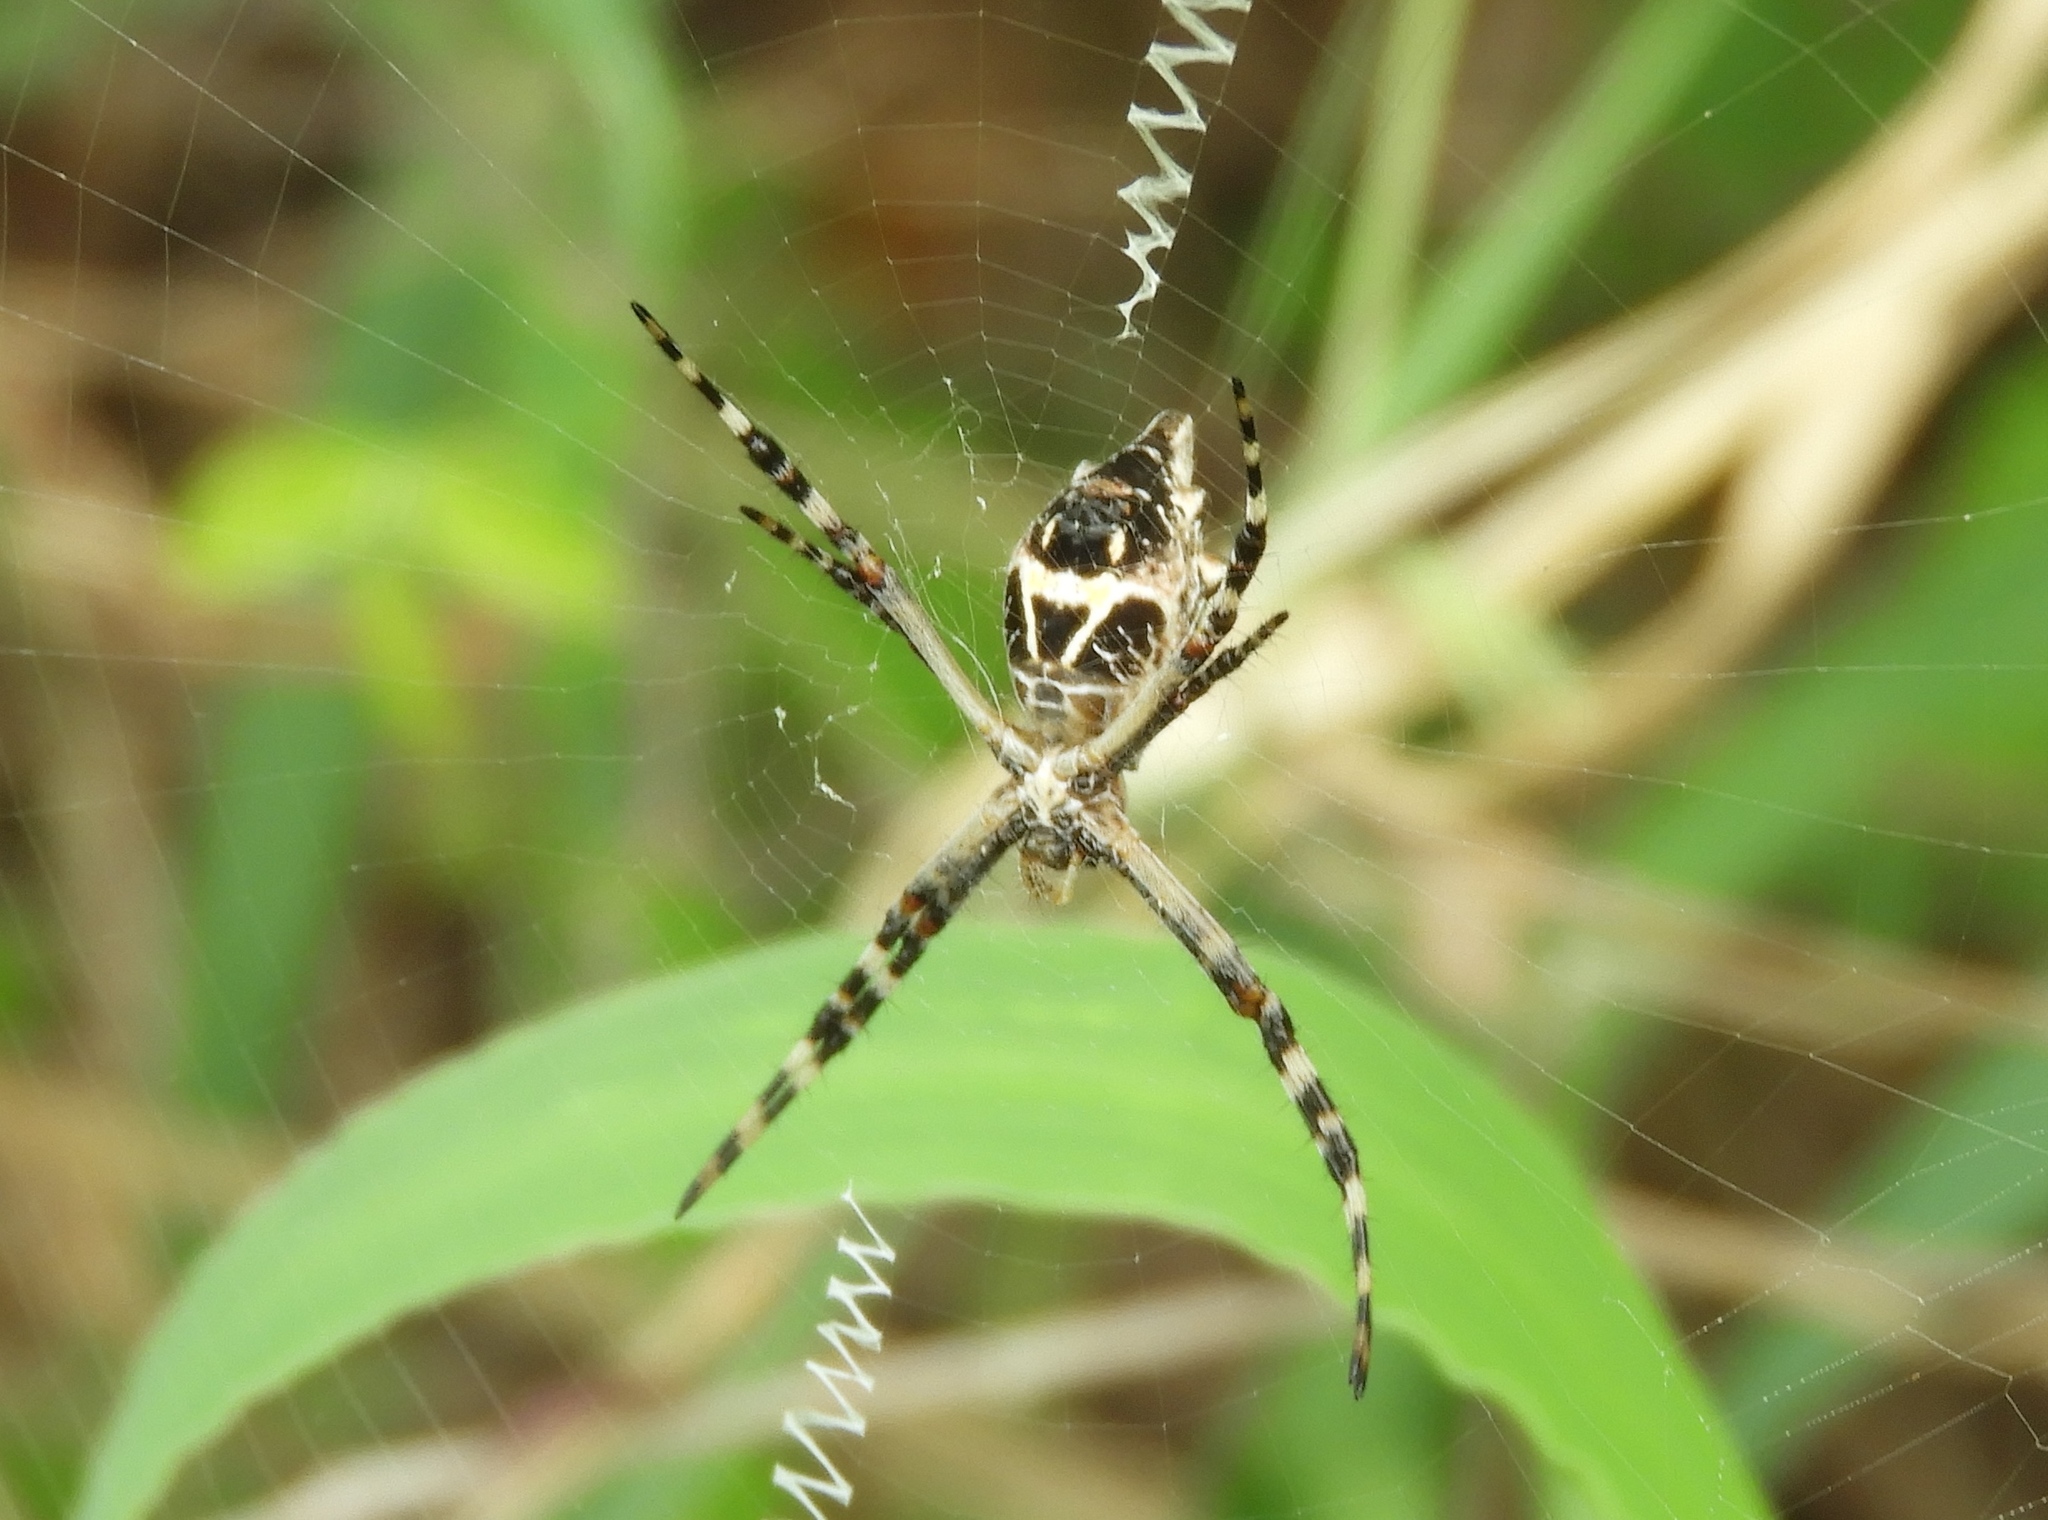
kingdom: Animalia
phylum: Arthropoda
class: Arachnida
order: Araneae
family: Araneidae
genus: Argiope
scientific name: Argiope
